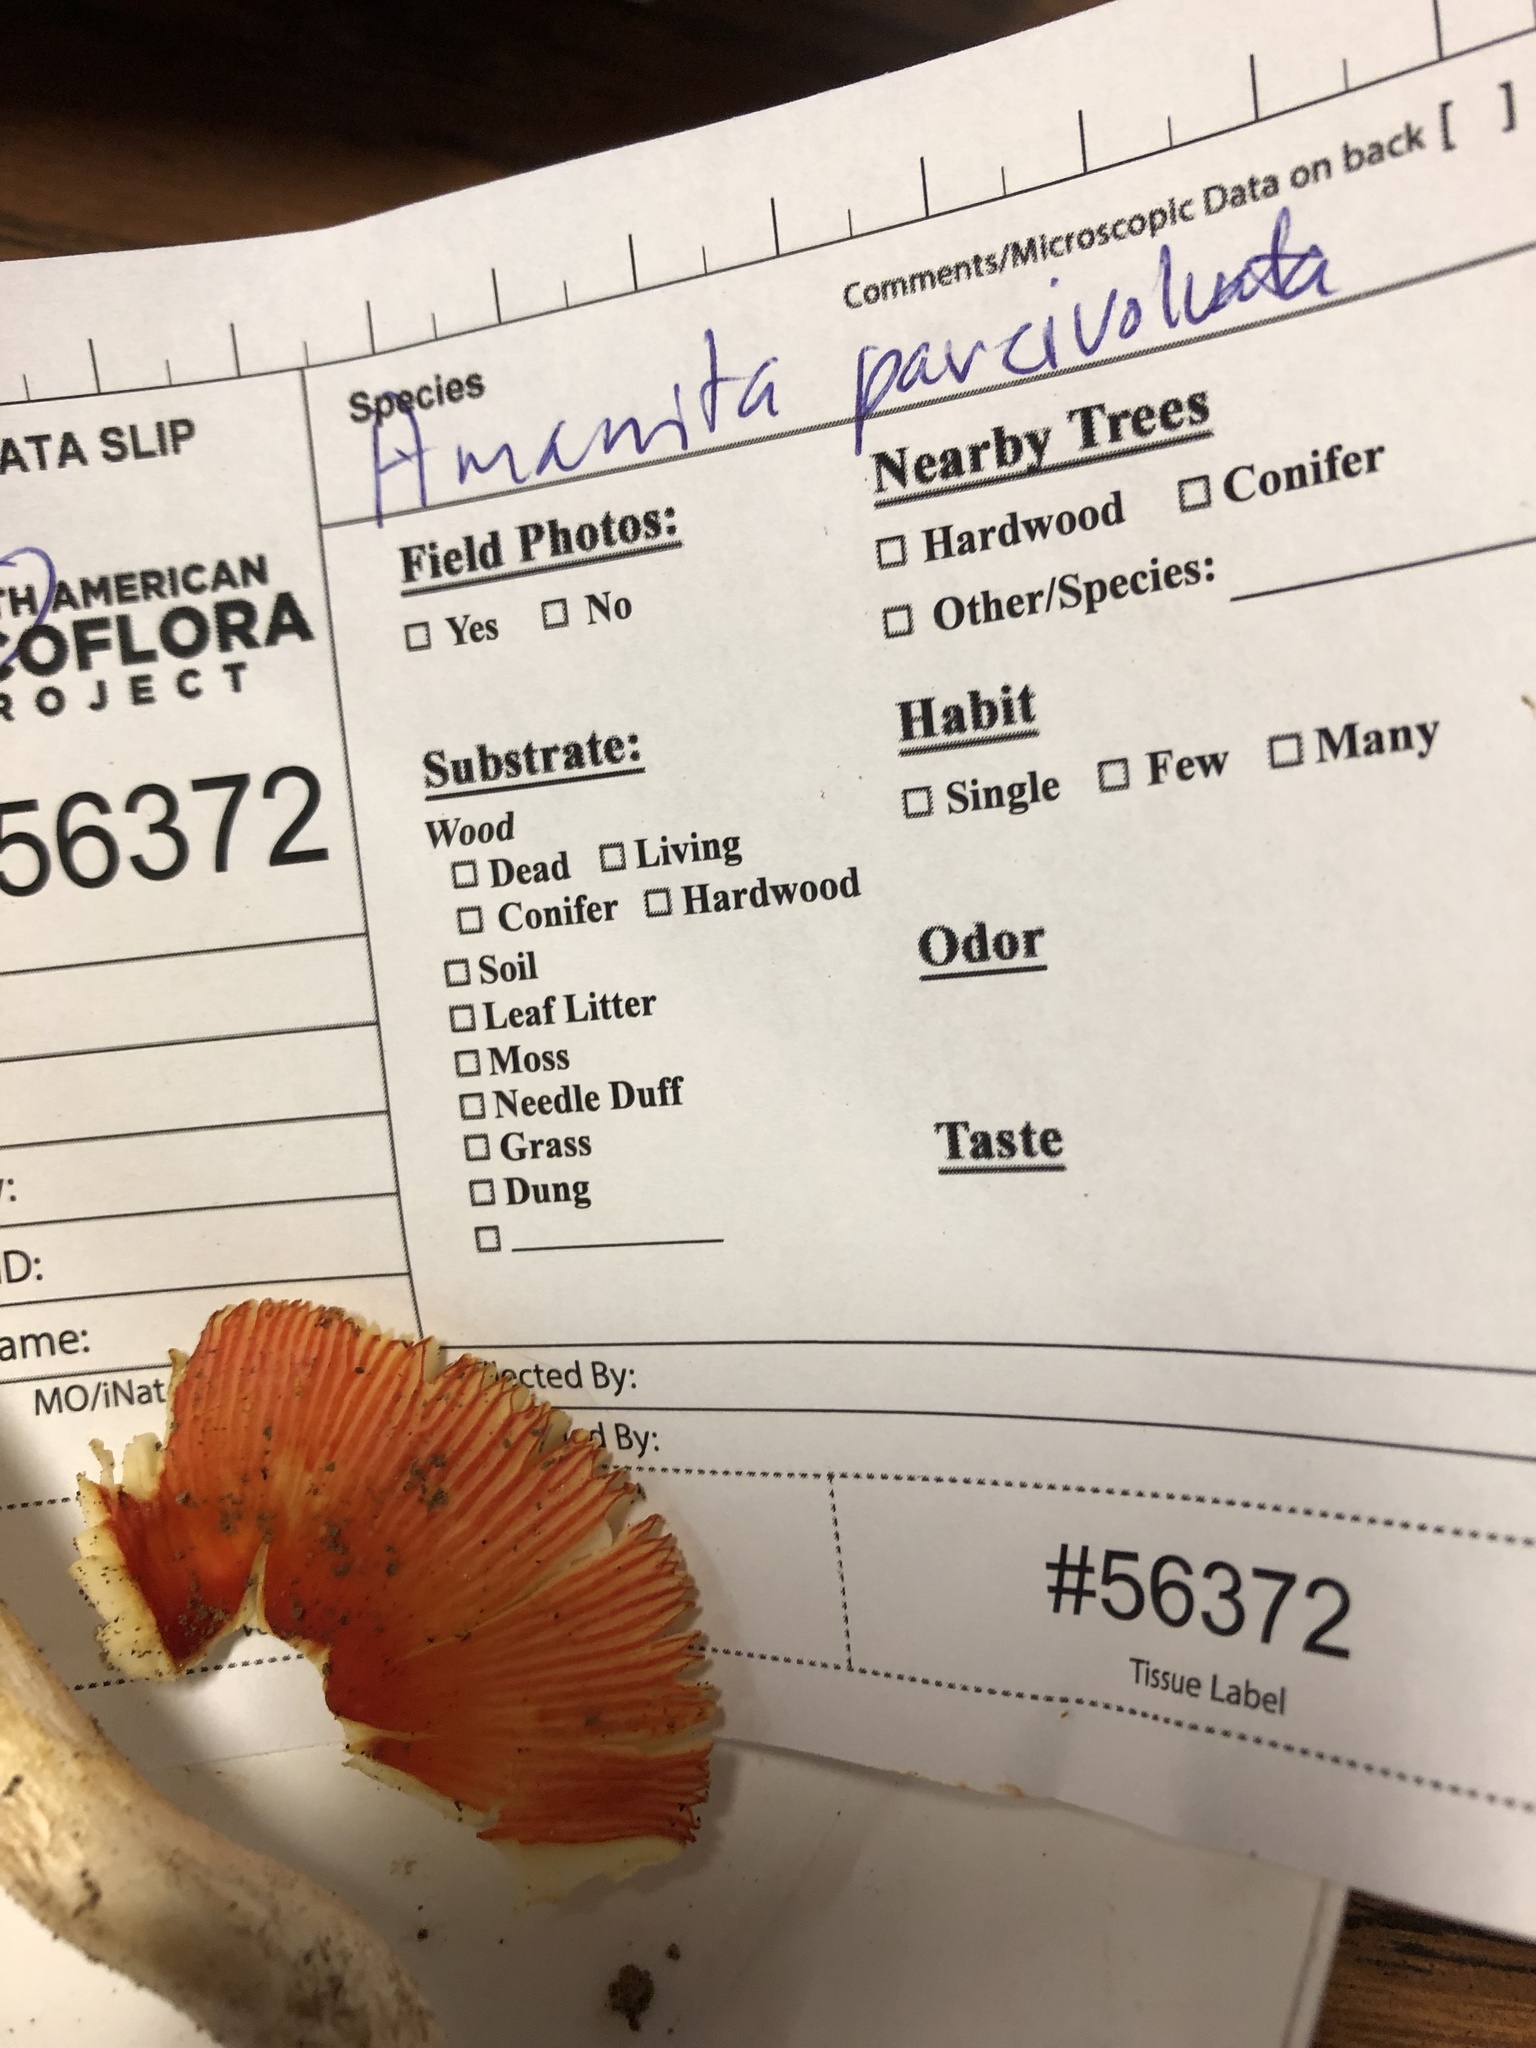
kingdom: Fungi
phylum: Basidiomycota
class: Agaricomycetes
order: Agaricales
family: Amanitaceae
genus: Amanita
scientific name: Amanita parcivolvata
